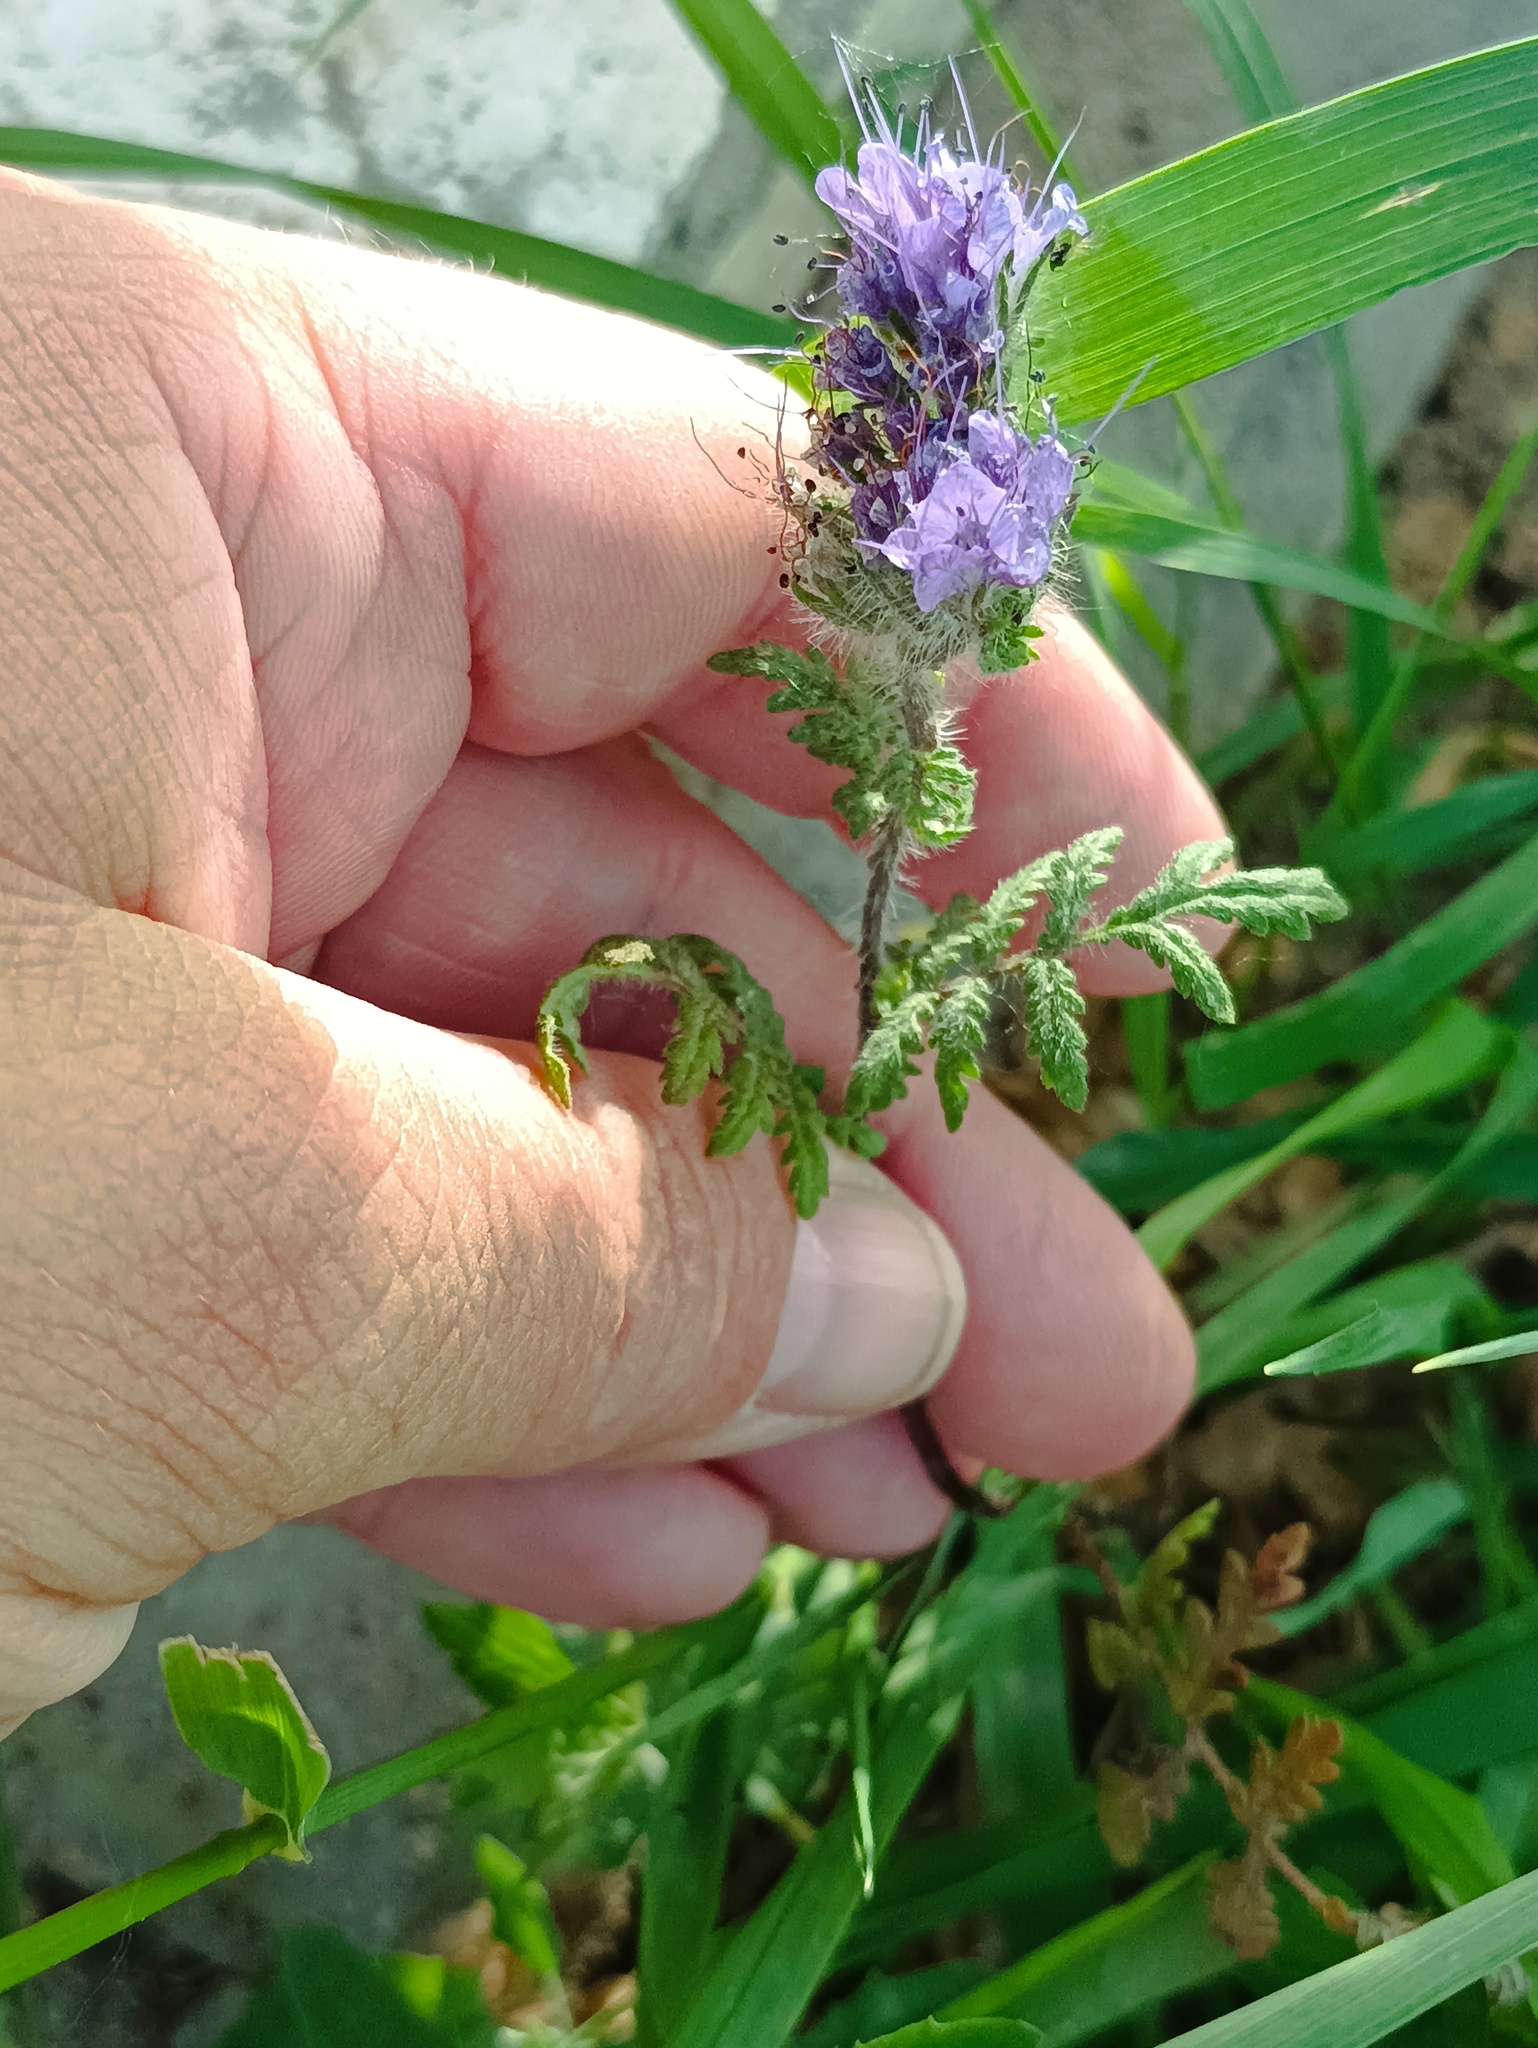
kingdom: Plantae
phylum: Tracheophyta
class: Magnoliopsida
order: Boraginales
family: Hydrophyllaceae
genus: Phacelia
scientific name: Phacelia tanacetifolia
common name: Phacelia
